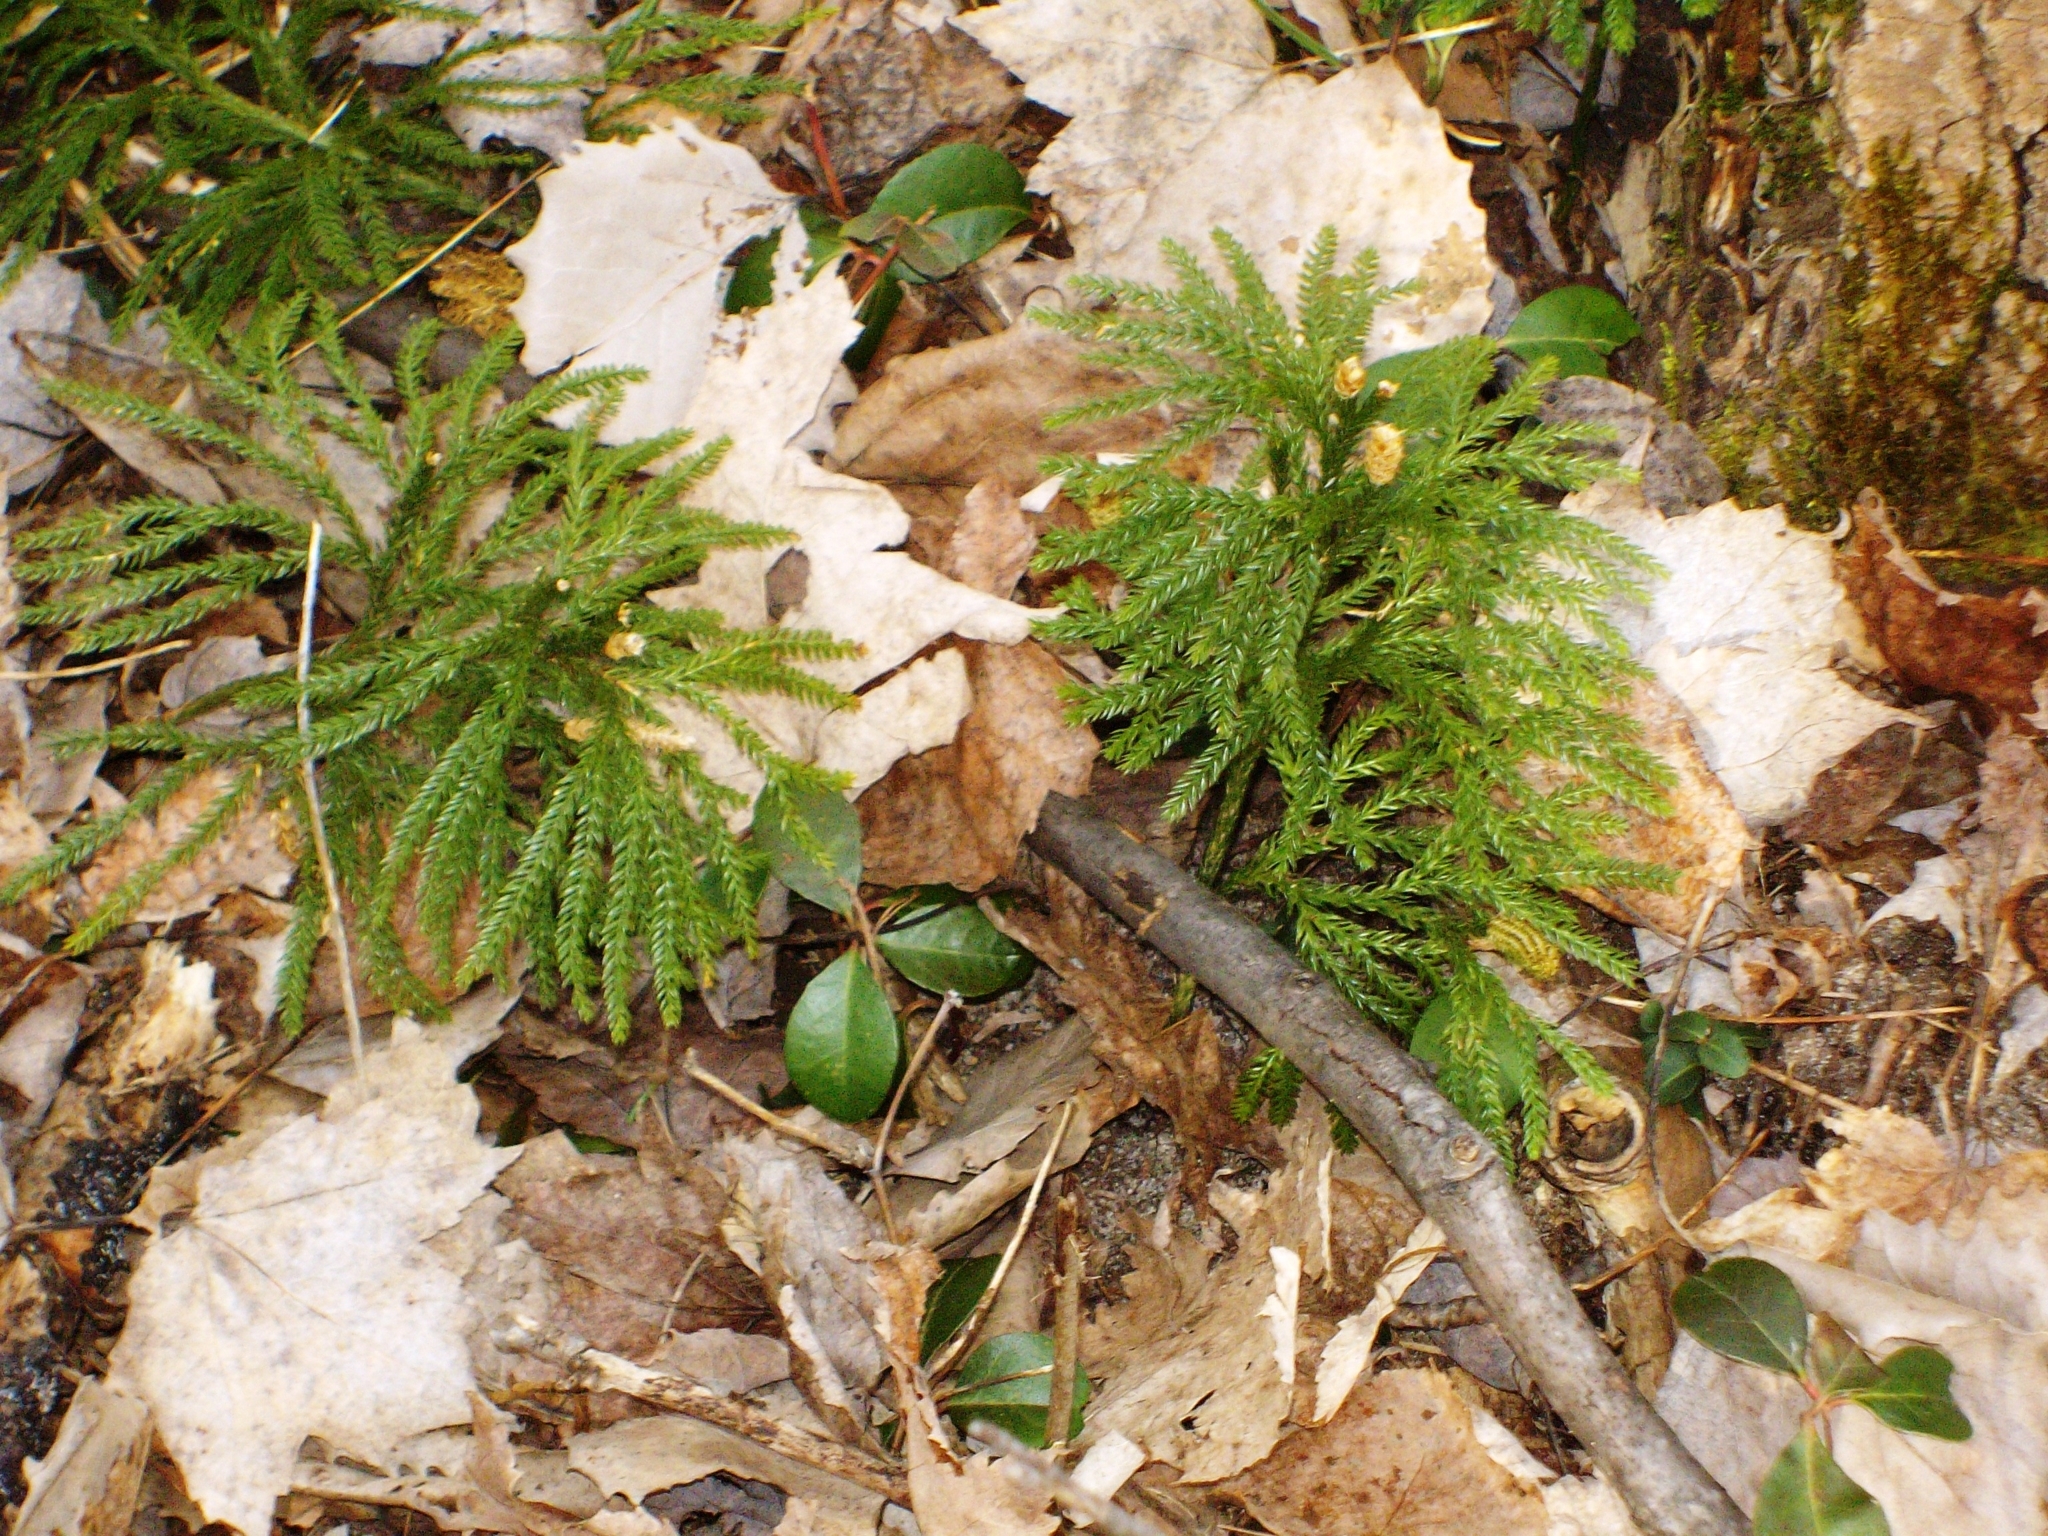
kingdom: Plantae
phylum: Tracheophyta
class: Lycopodiopsida
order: Lycopodiales
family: Lycopodiaceae
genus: Dendrolycopodium
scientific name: Dendrolycopodium obscurum
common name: Common ground-pine
